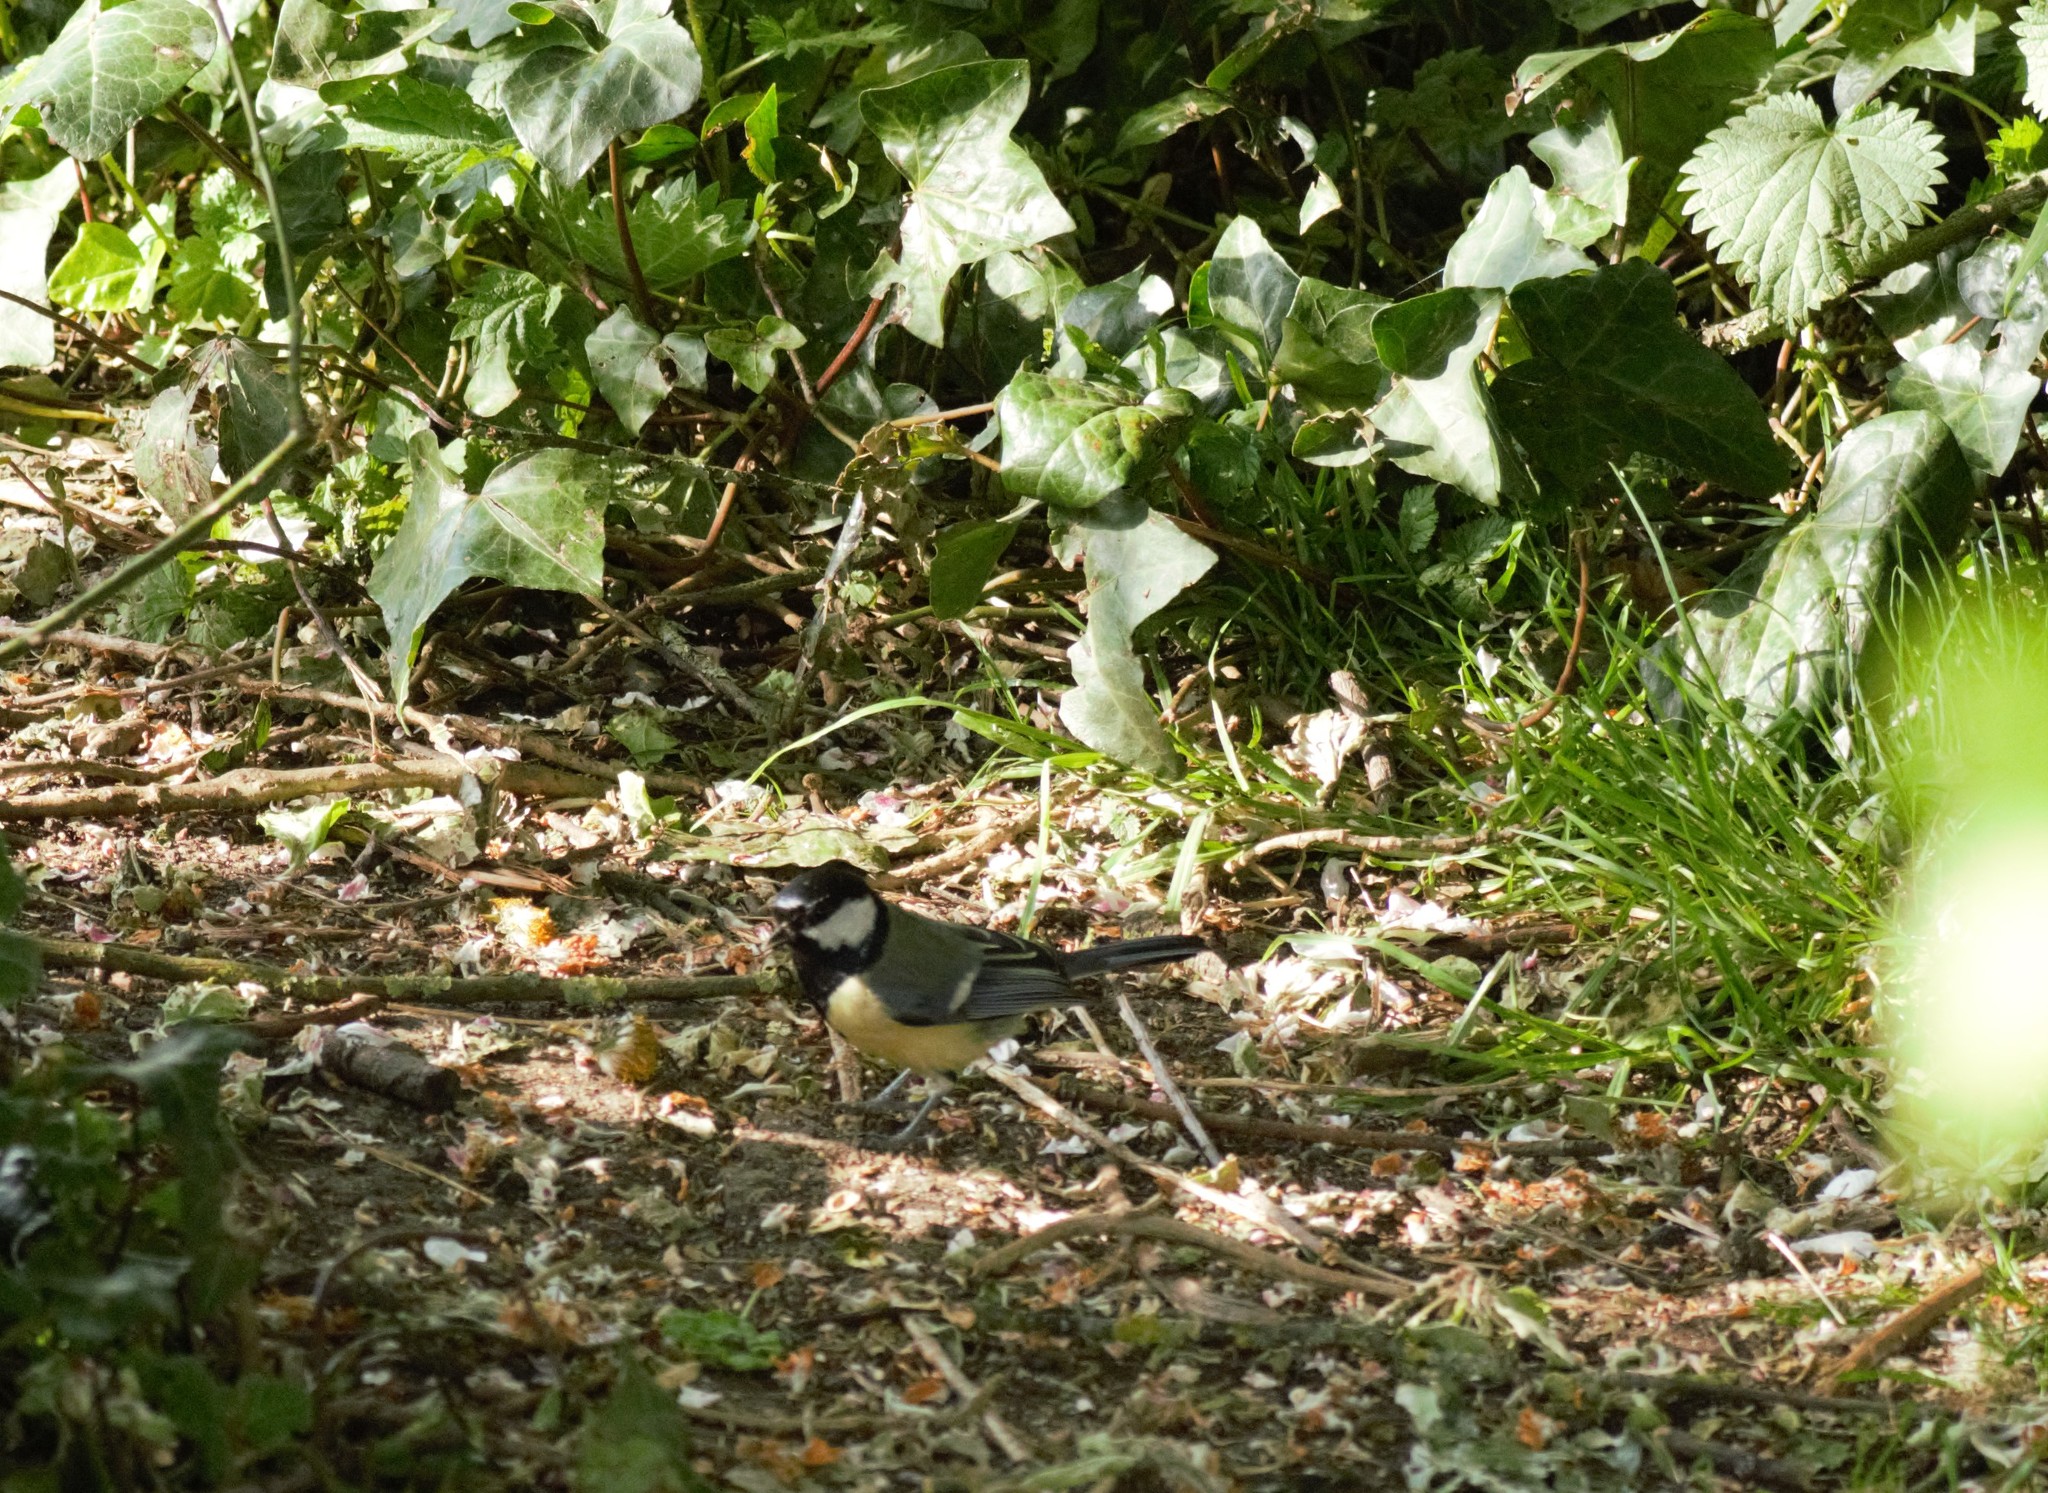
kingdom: Animalia
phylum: Chordata
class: Aves
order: Passeriformes
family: Paridae
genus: Parus
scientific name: Parus major
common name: Great tit
